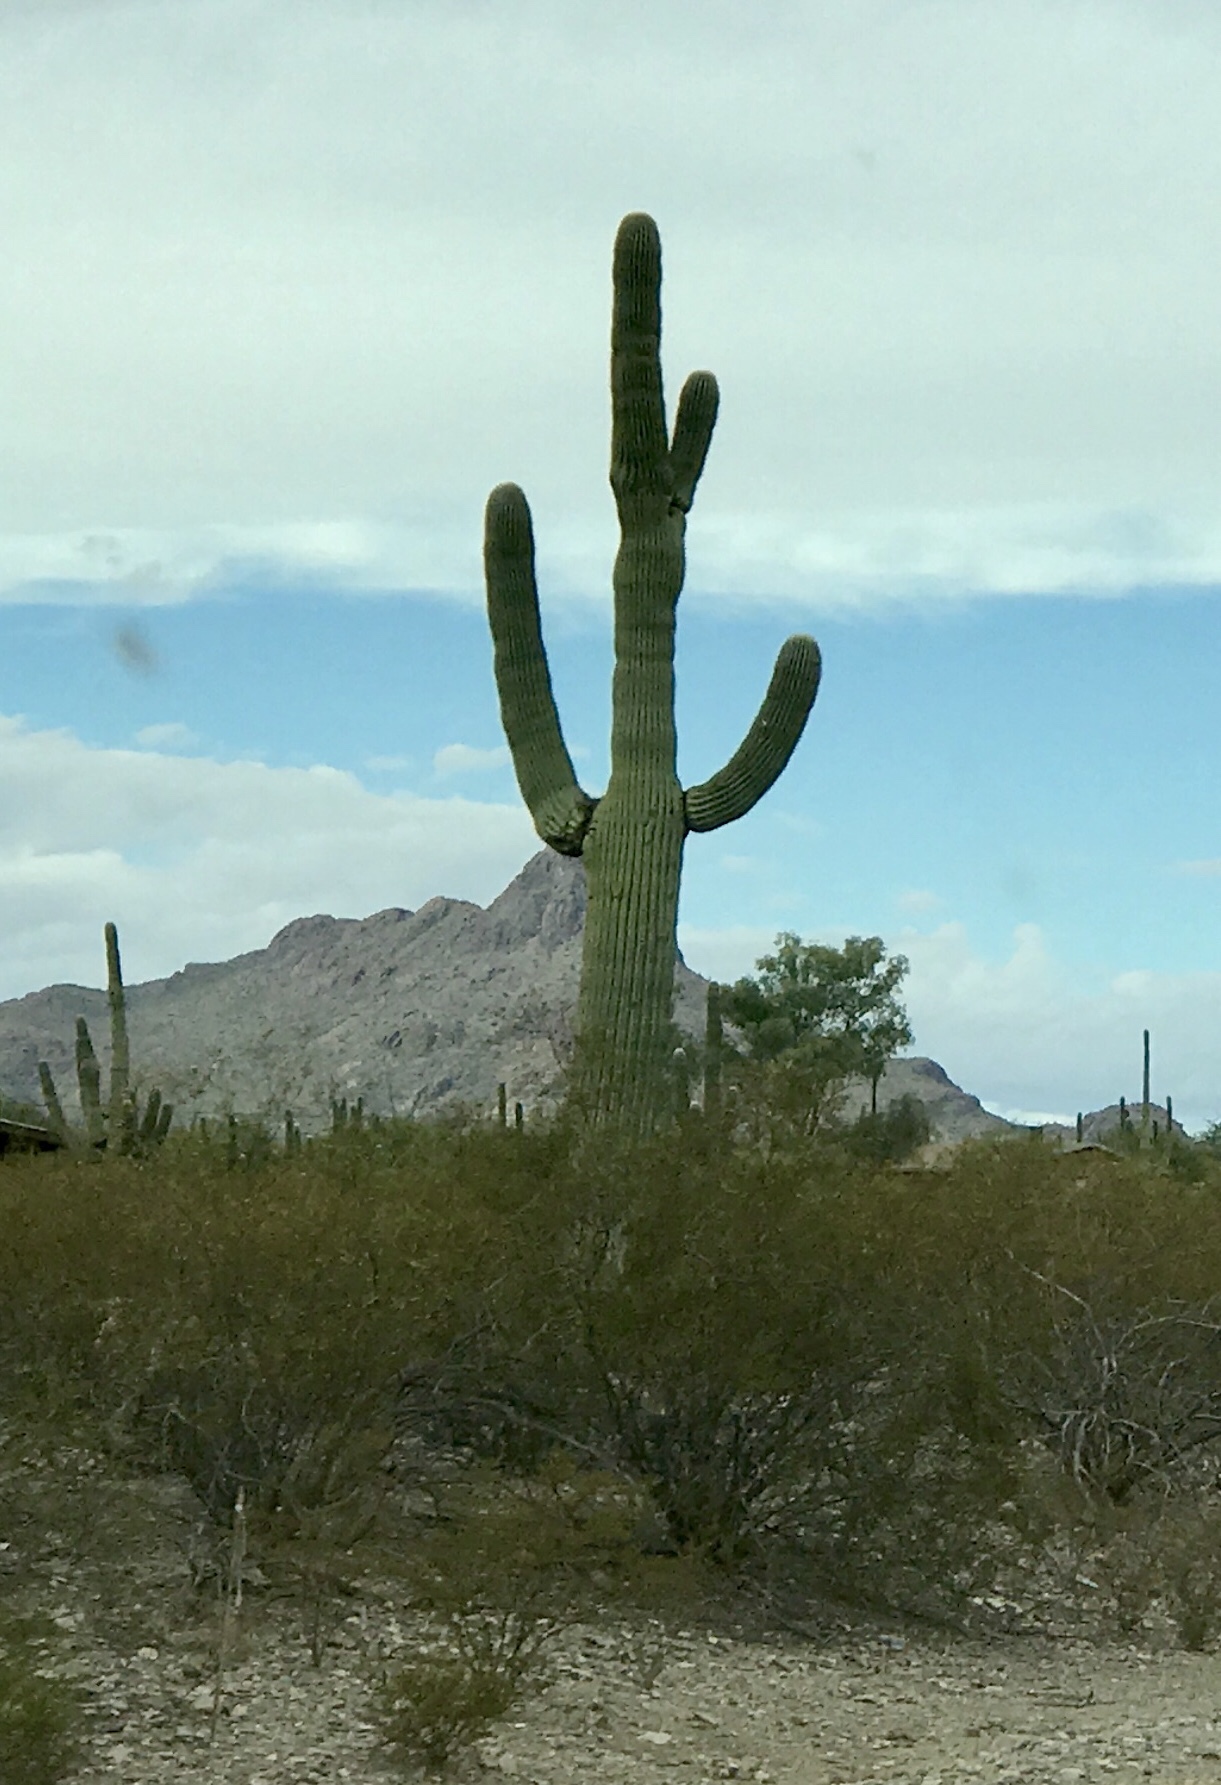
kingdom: Plantae
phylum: Tracheophyta
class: Magnoliopsida
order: Caryophyllales
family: Cactaceae
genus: Carnegiea
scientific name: Carnegiea gigantea
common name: Saguaro
